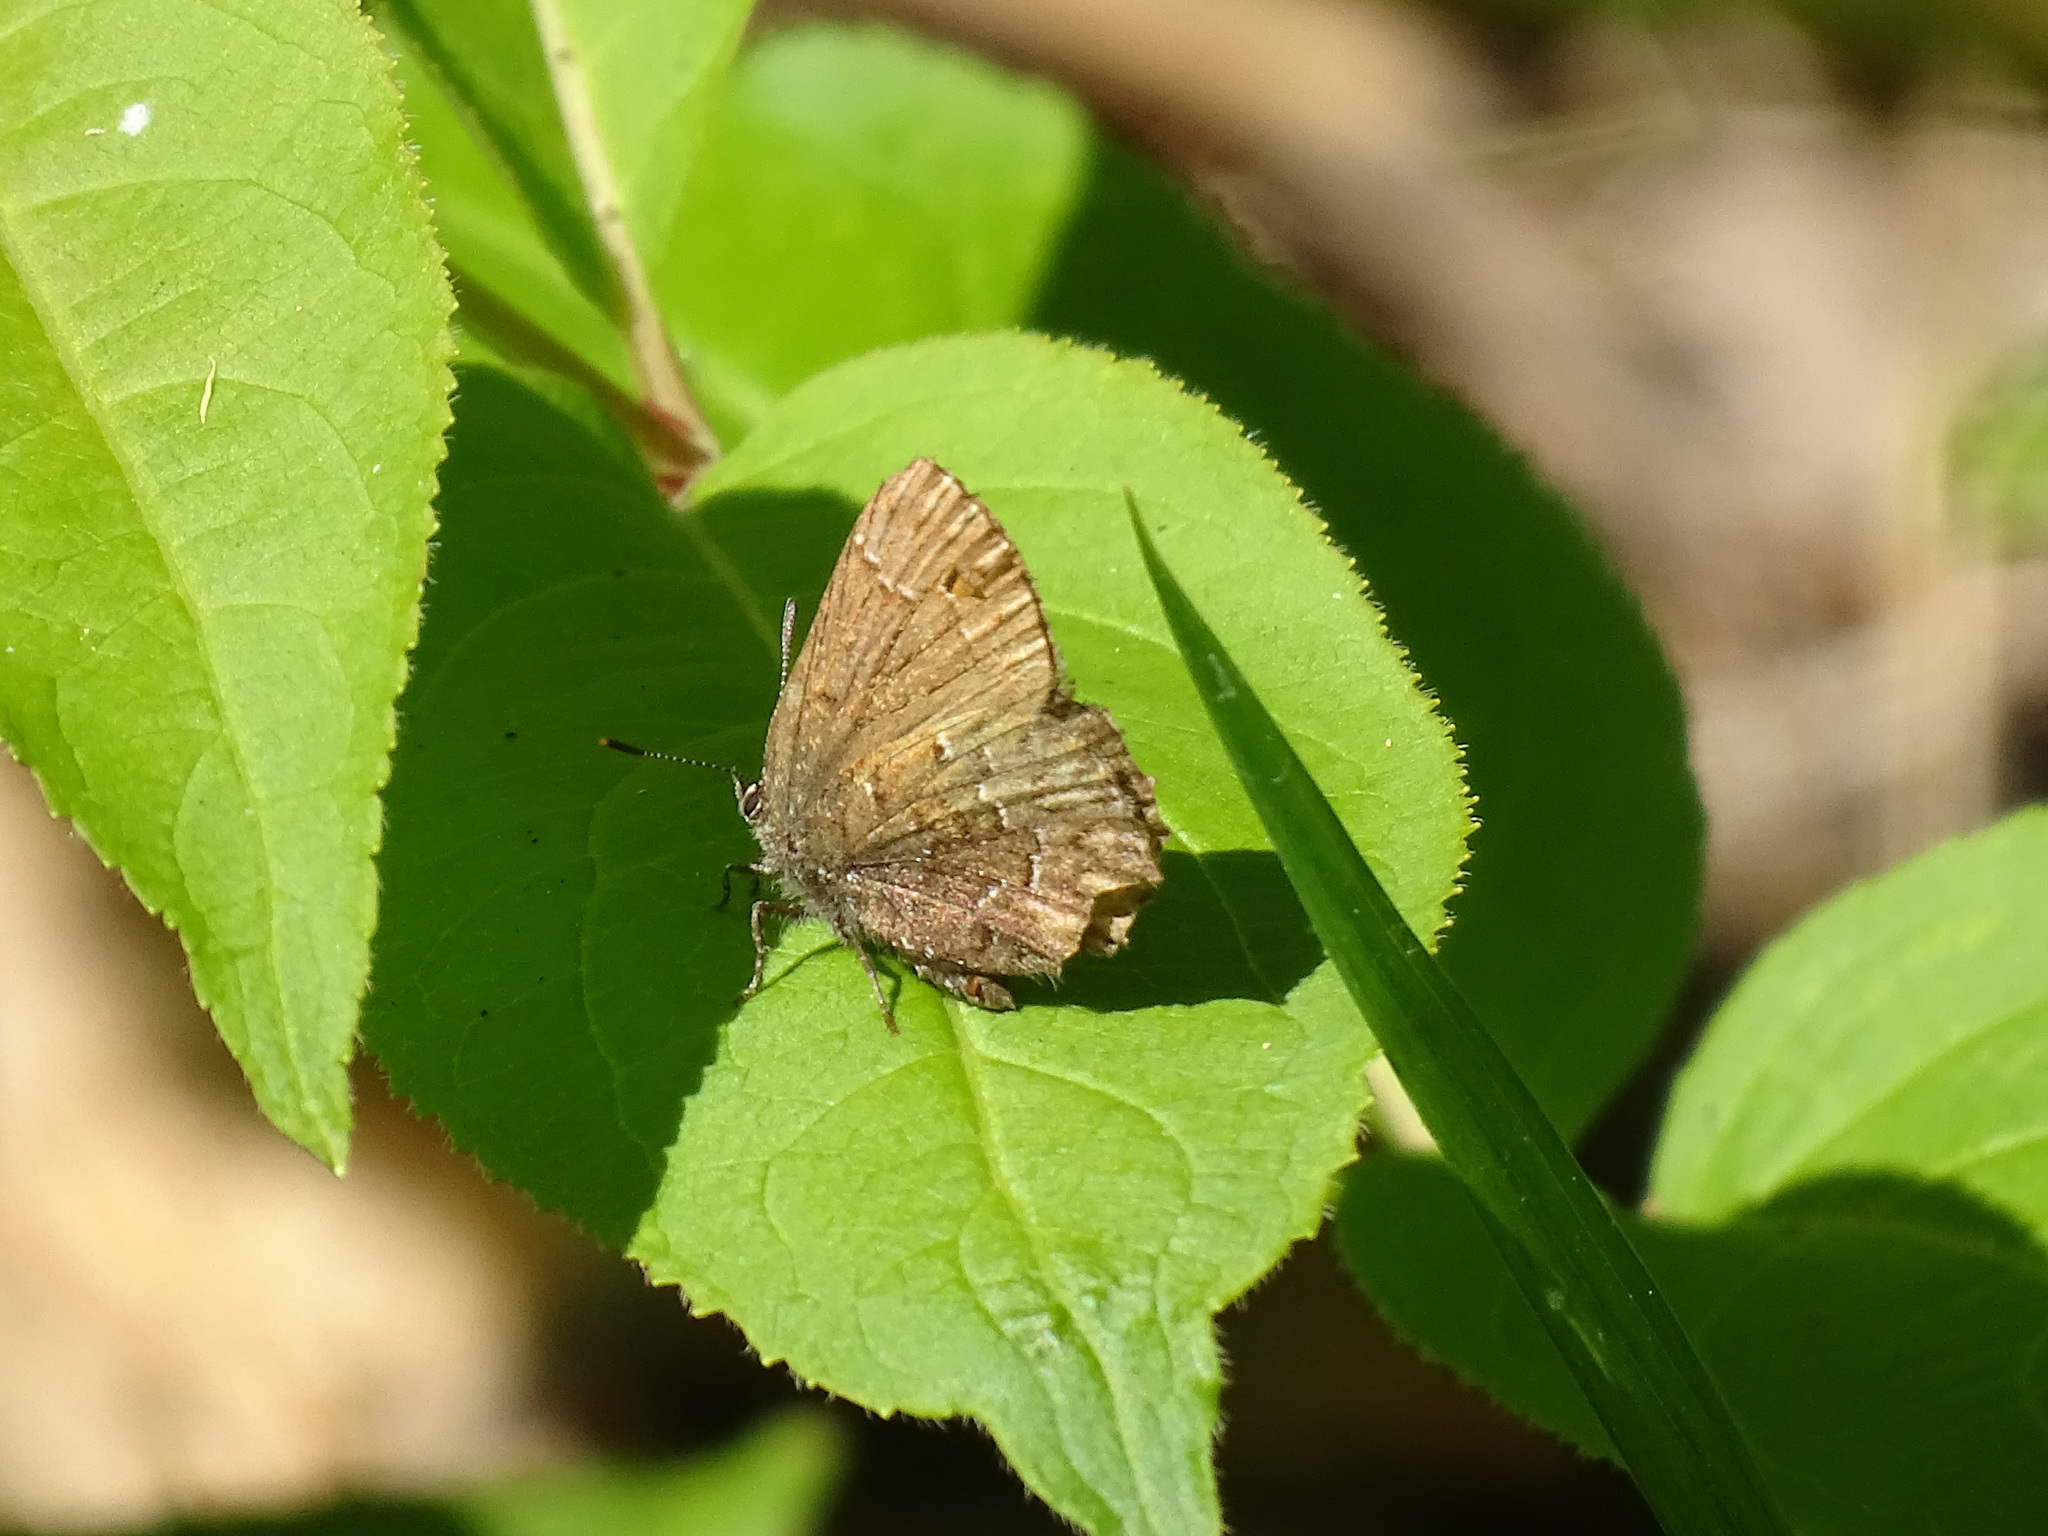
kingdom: Animalia
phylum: Arthropoda
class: Insecta
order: Lepidoptera
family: Lycaenidae
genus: Incisalia
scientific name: Incisalia niphon
